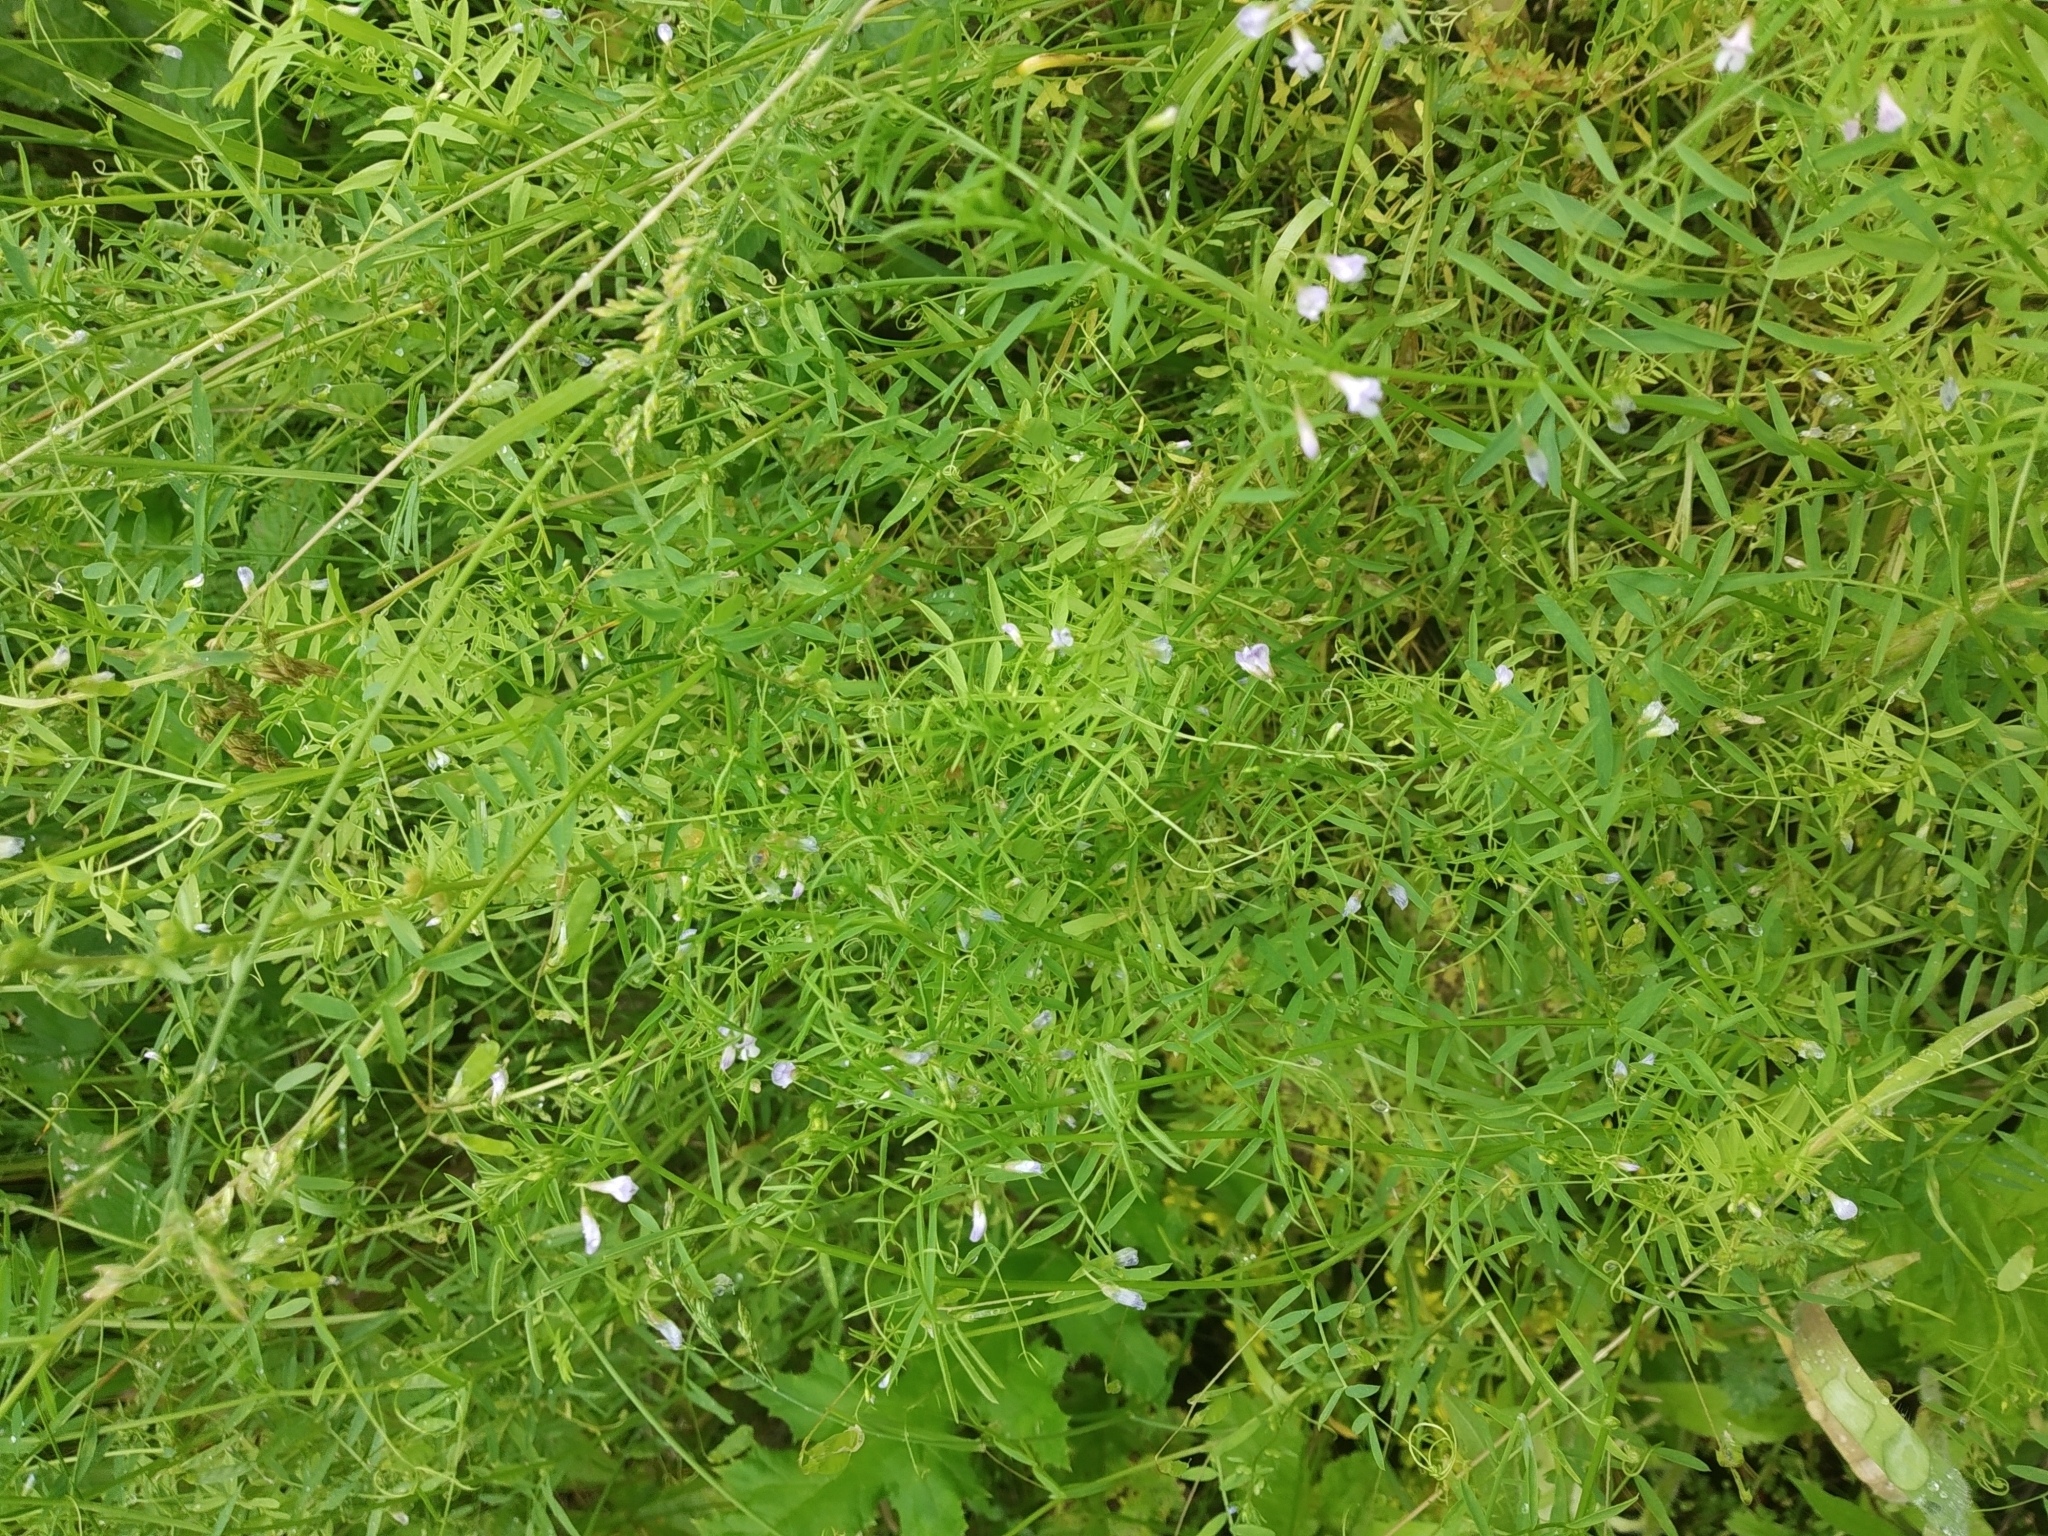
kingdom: Plantae
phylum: Tracheophyta
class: Magnoliopsida
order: Fabales
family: Fabaceae
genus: Vicia
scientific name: Vicia tetrasperma
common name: Smooth tare
